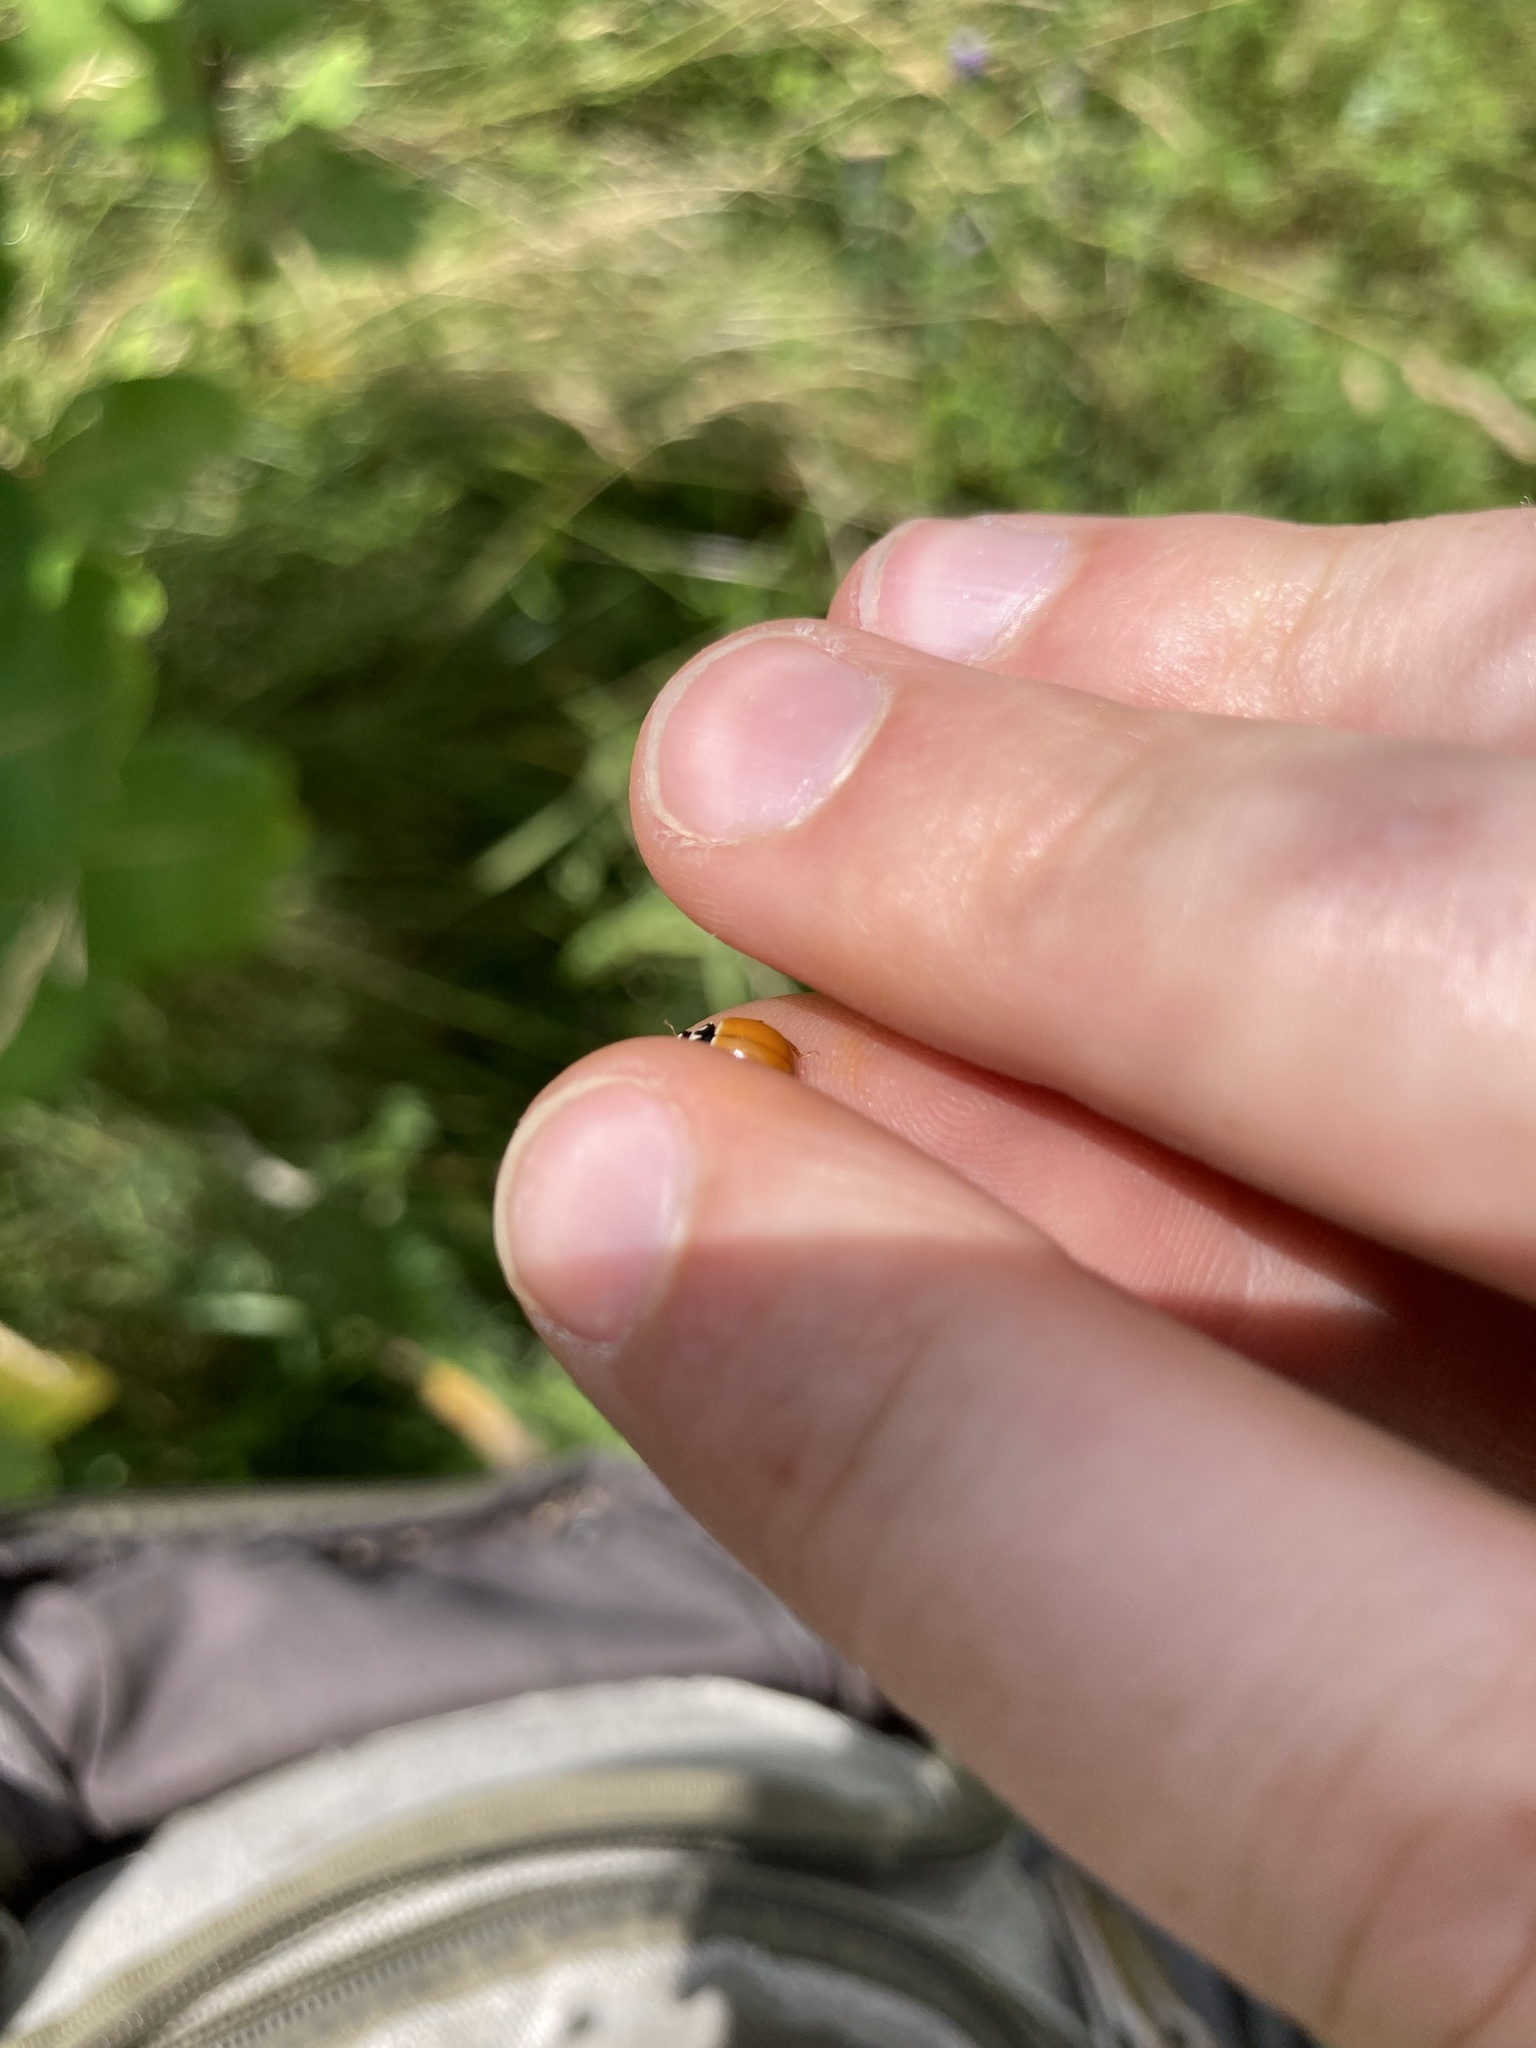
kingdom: Animalia
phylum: Arthropoda
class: Insecta
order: Coleoptera
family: Coccinellidae
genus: Cycloneda
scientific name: Cycloneda munda
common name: Polished lady beetle
